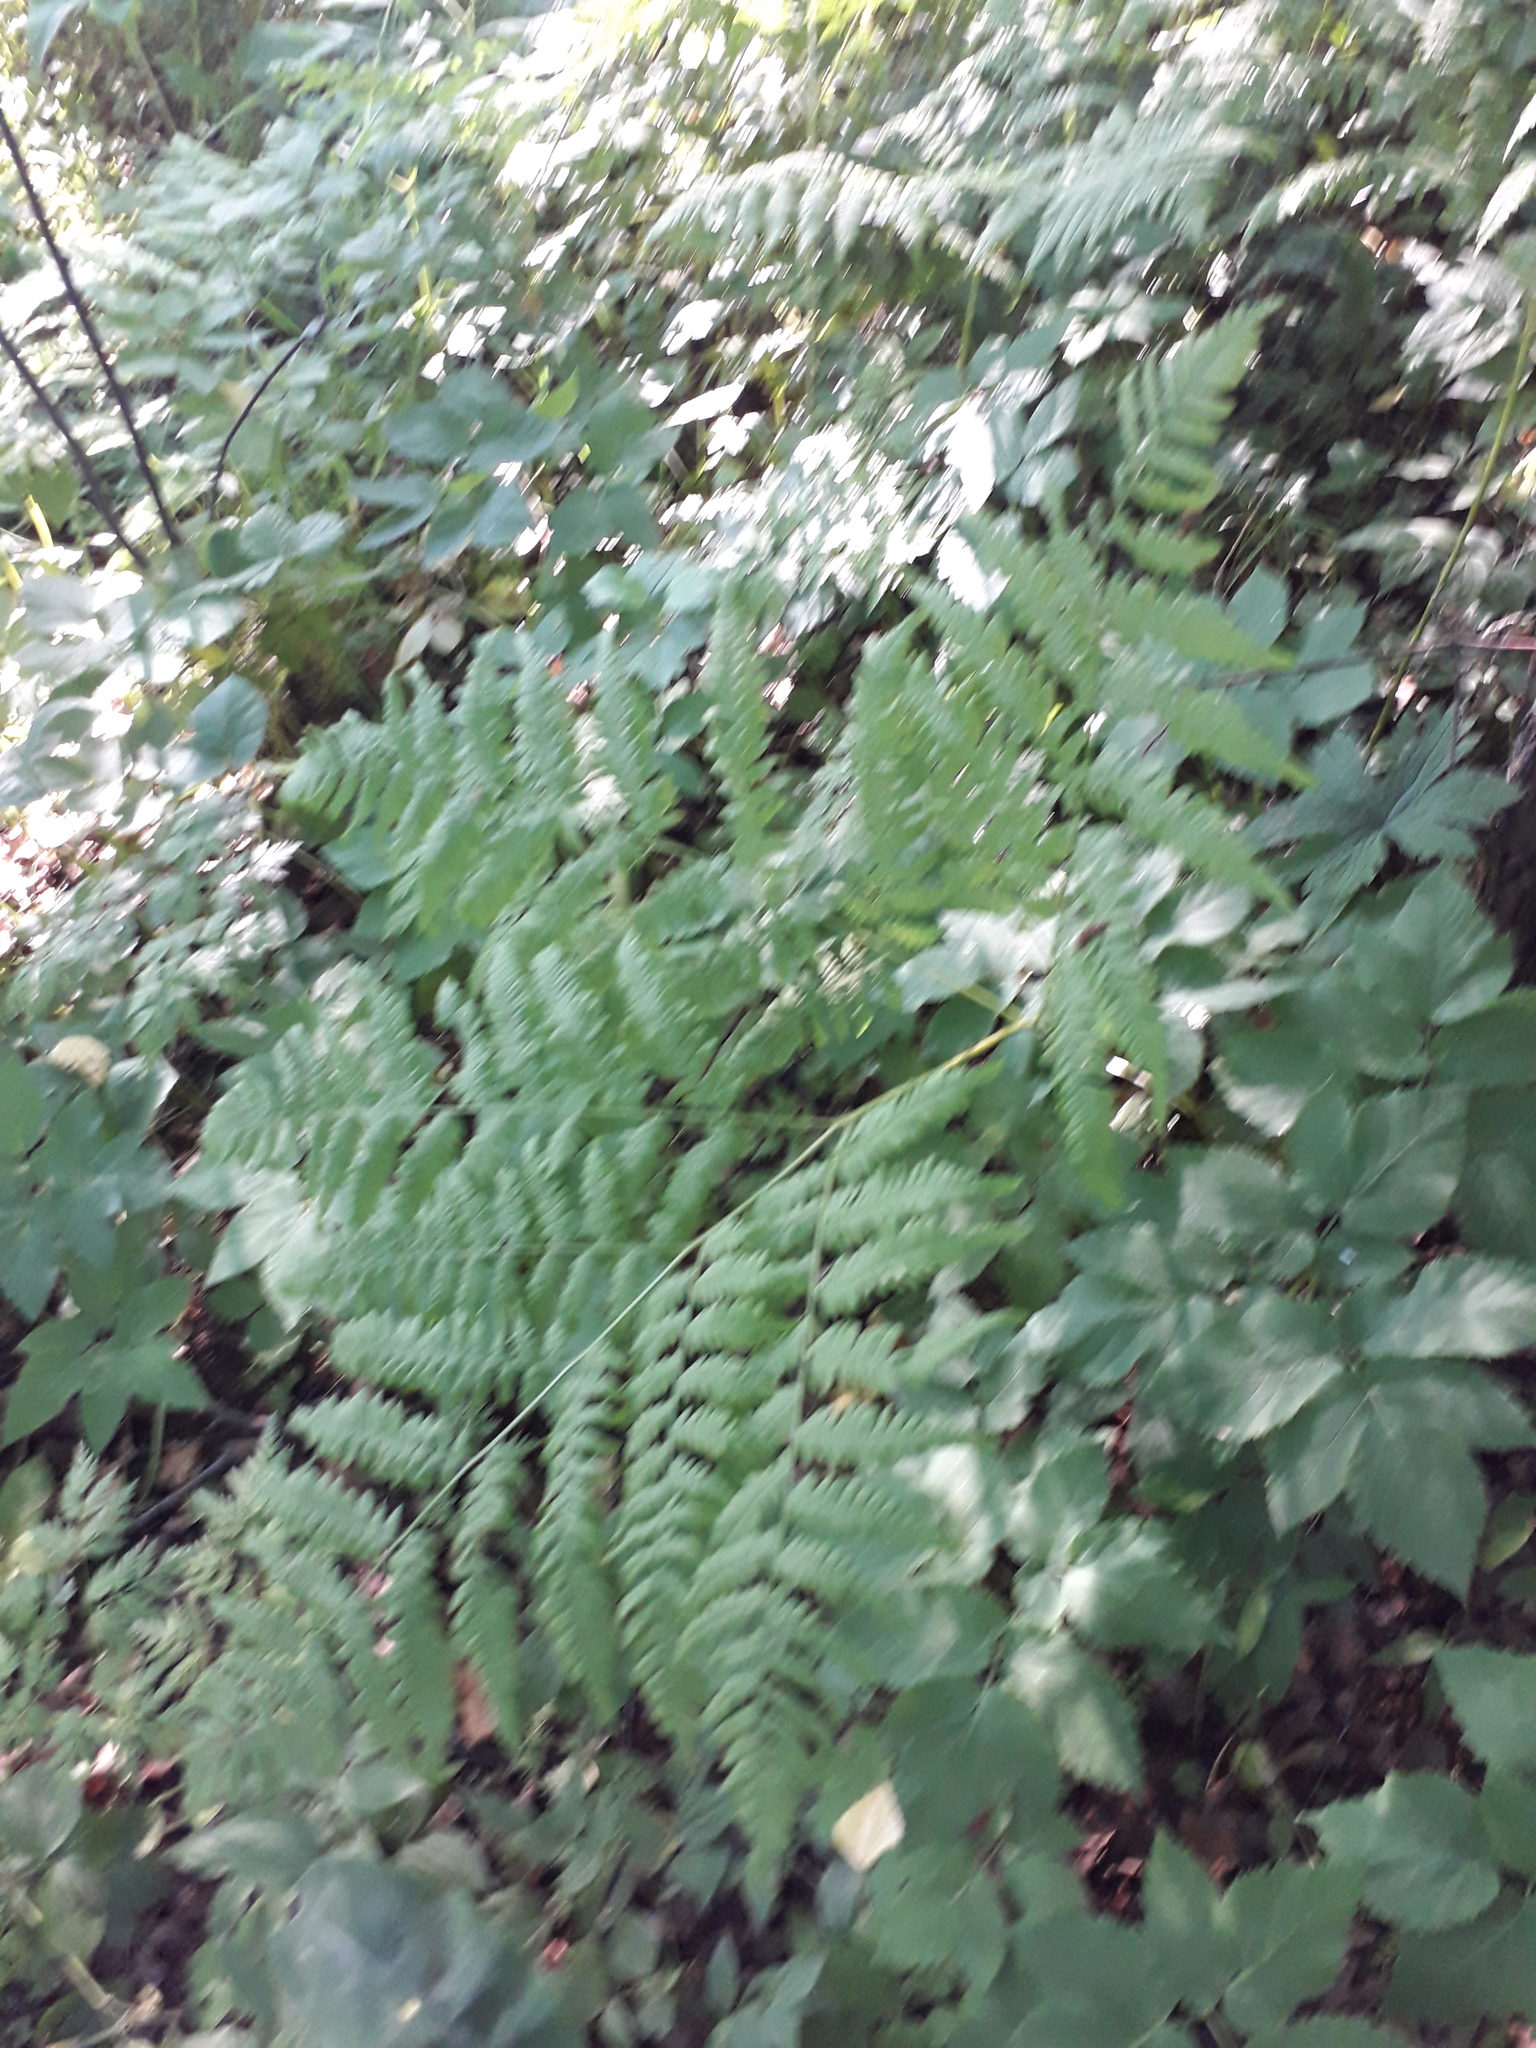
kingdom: Plantae
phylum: Tracheophyta
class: Polypodiopsida
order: Polypodiales
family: Dennstaedtiaceae
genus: Pteridium
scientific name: Pteridium aquilinum
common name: Bracken
